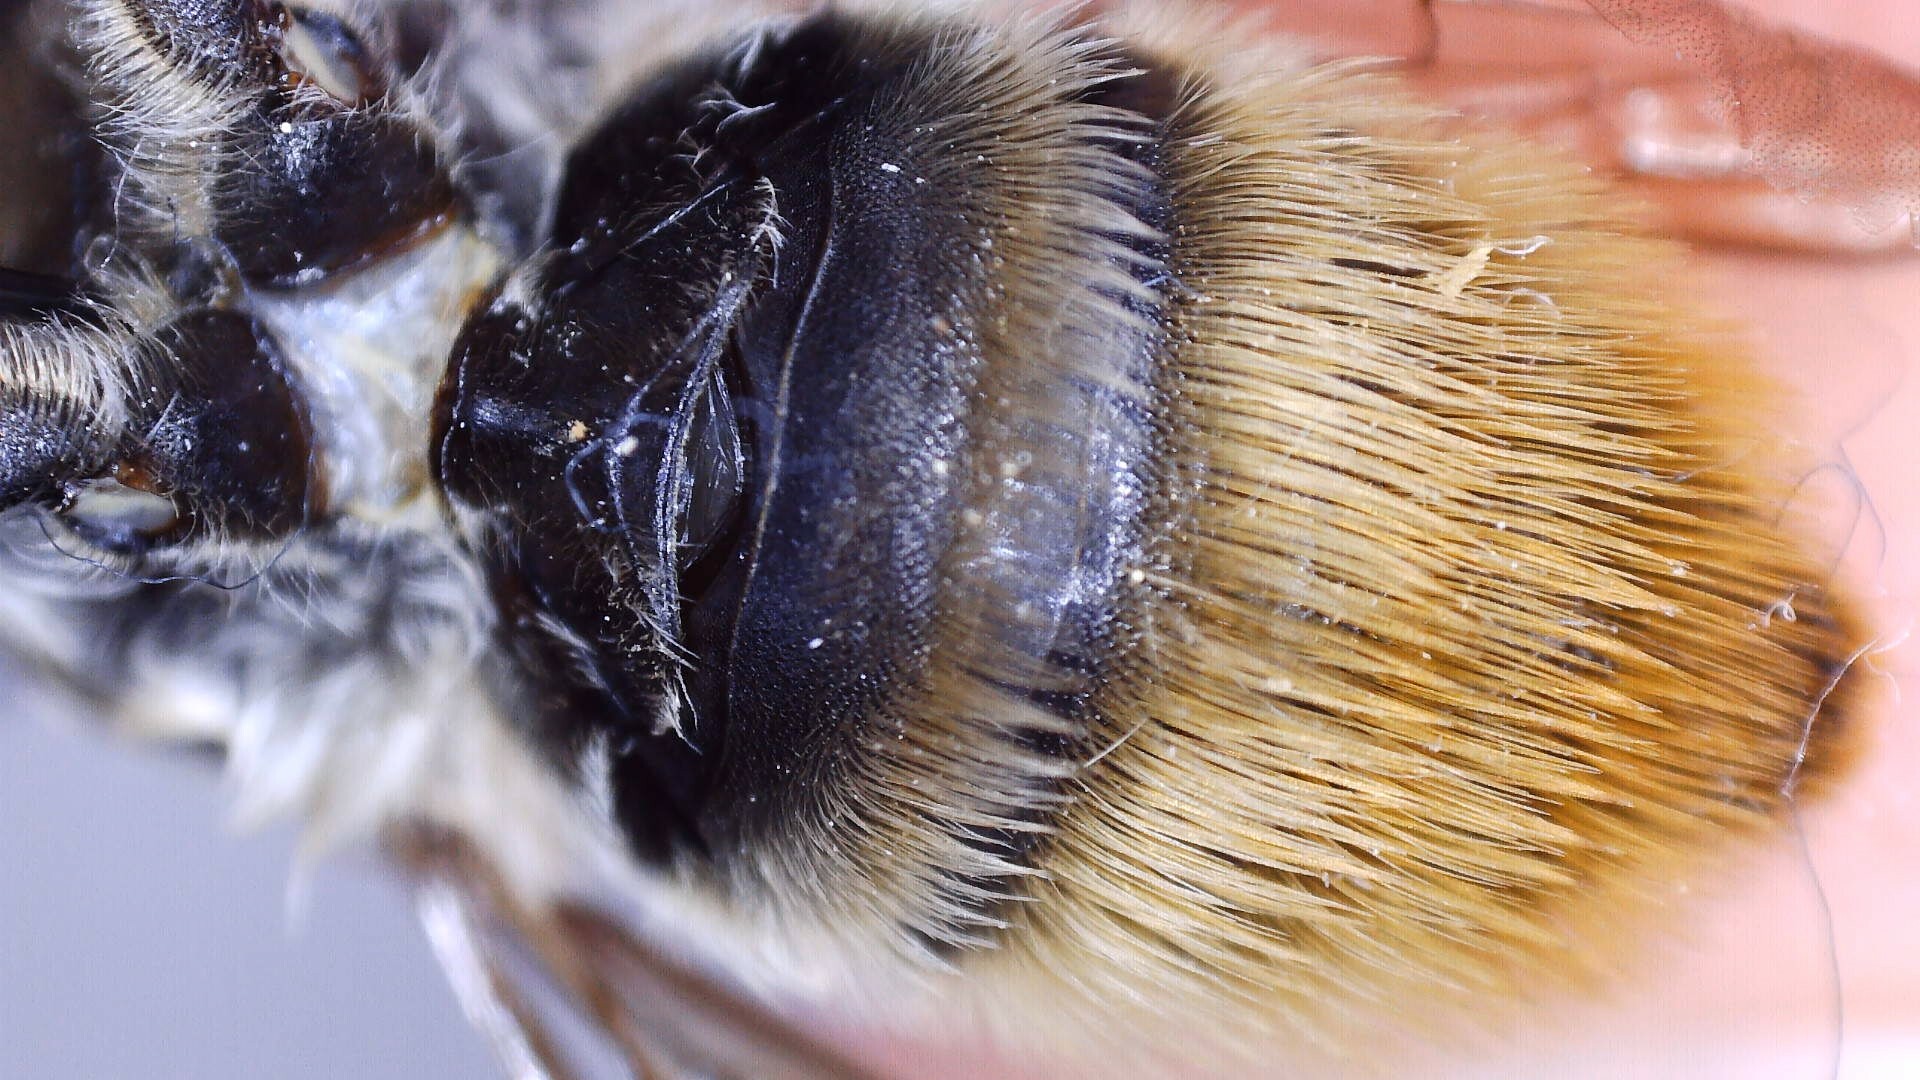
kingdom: Animalia
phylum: Arthropoda
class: Insecta
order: Hymenoptera
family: Megachilidae
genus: Megachile
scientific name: Megachile latimanus
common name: Leafcutting bee
